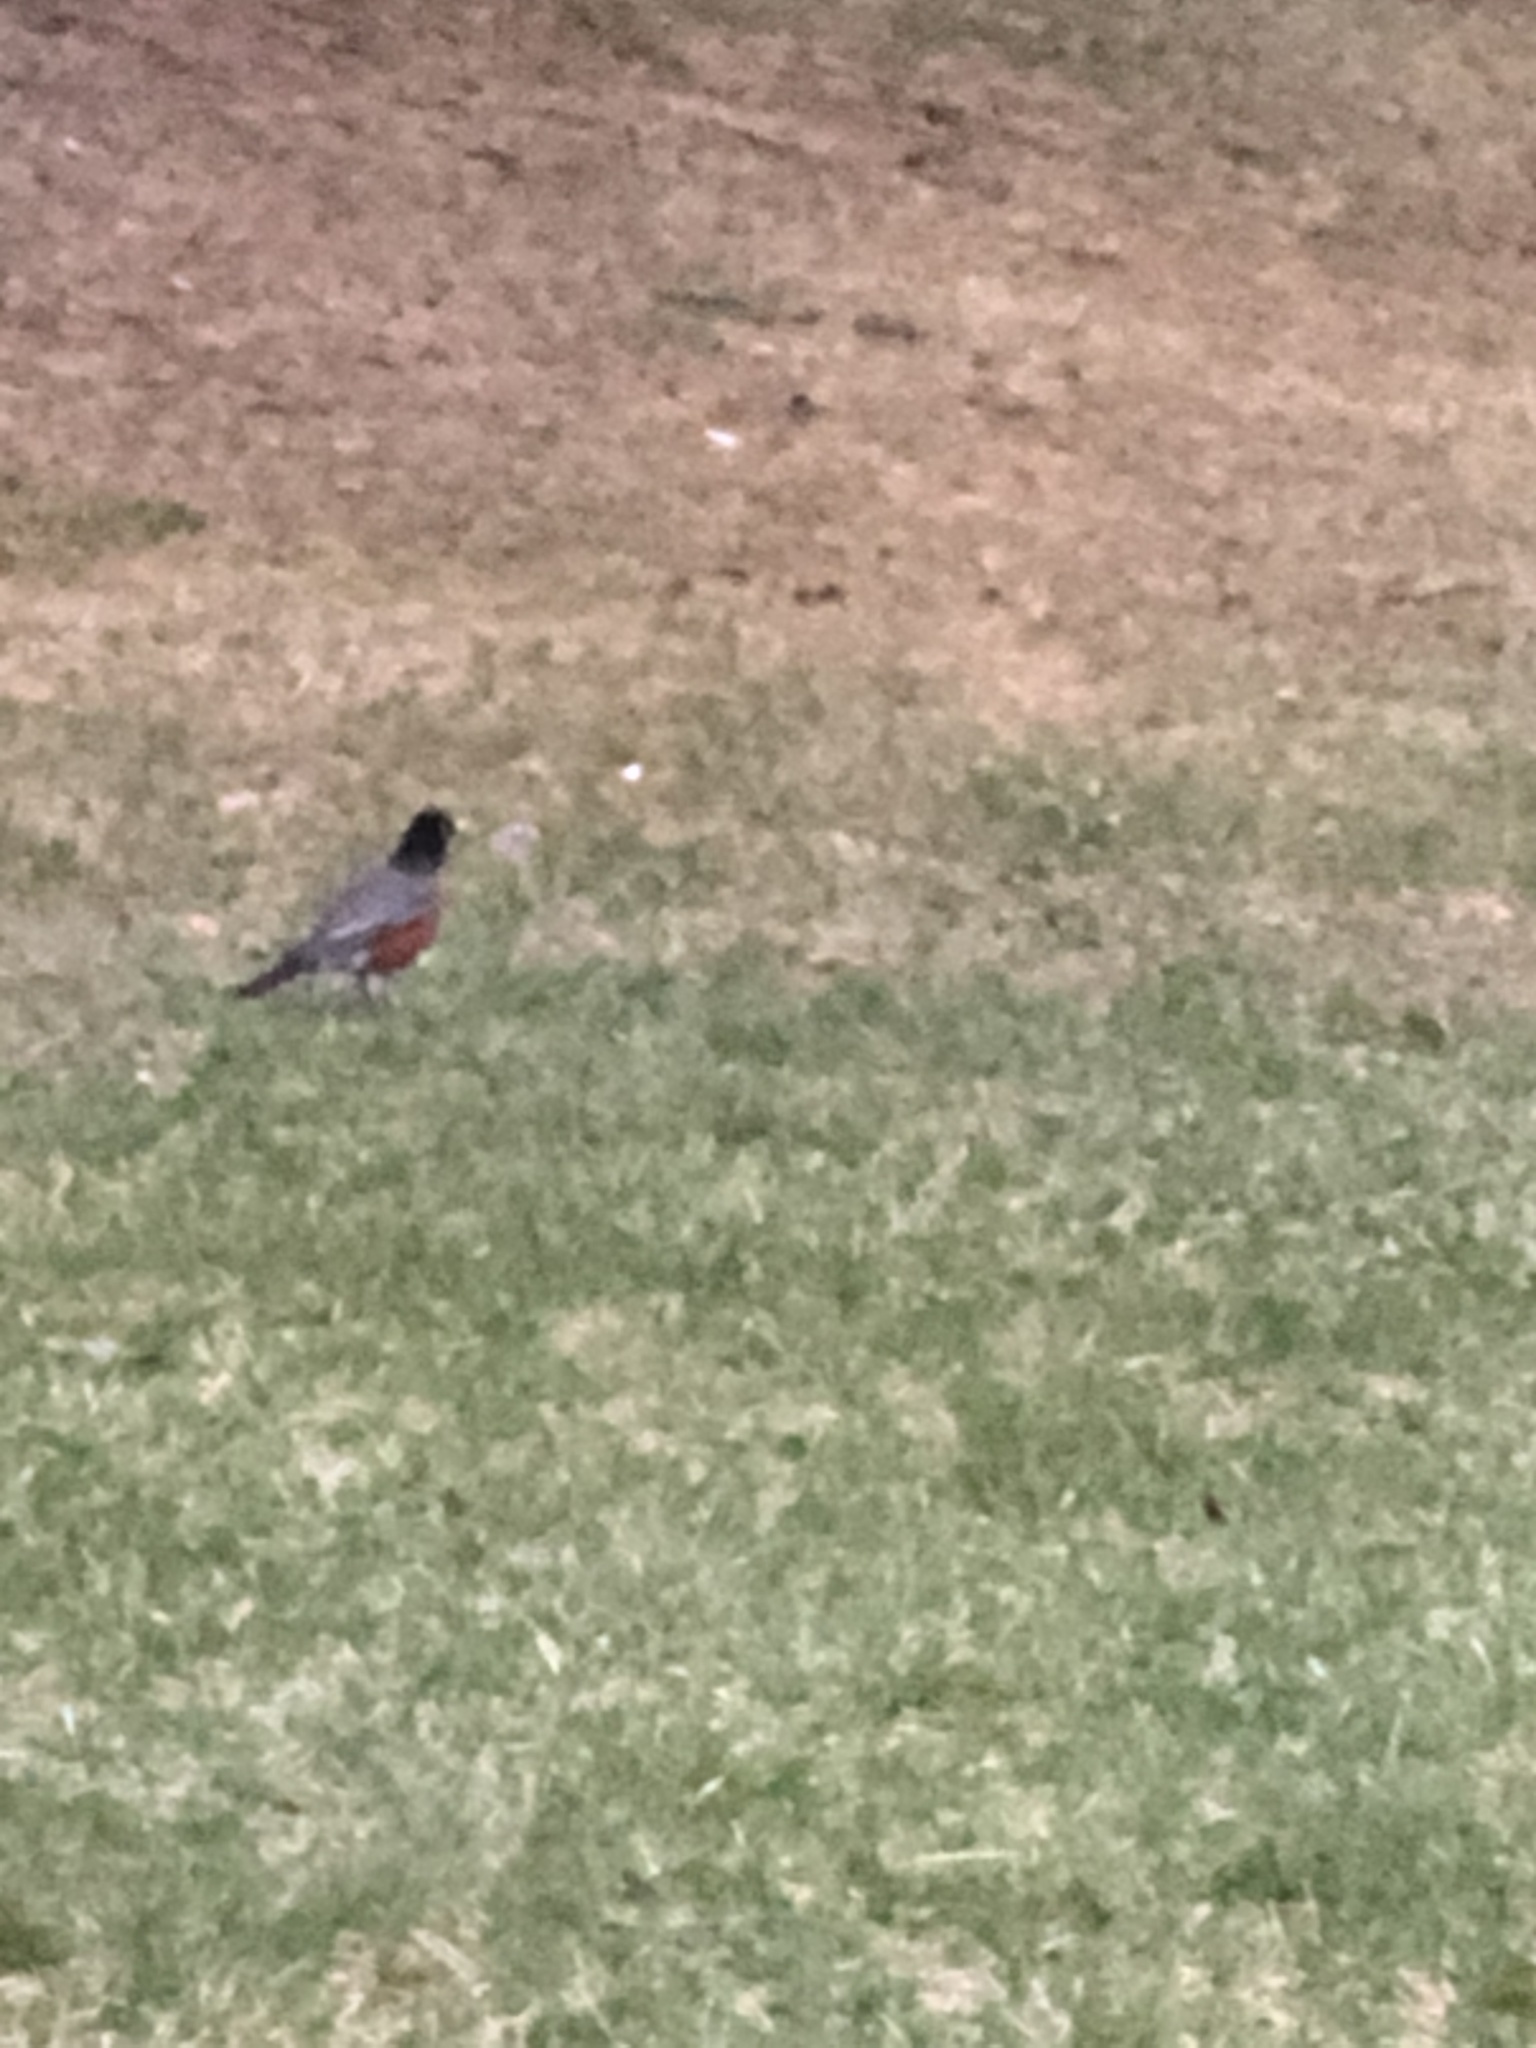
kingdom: Animalia
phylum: Chordata
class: Aves
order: Passeriformes
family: Turdidae
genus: Turdus
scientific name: Turdus migratorius
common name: American robin
